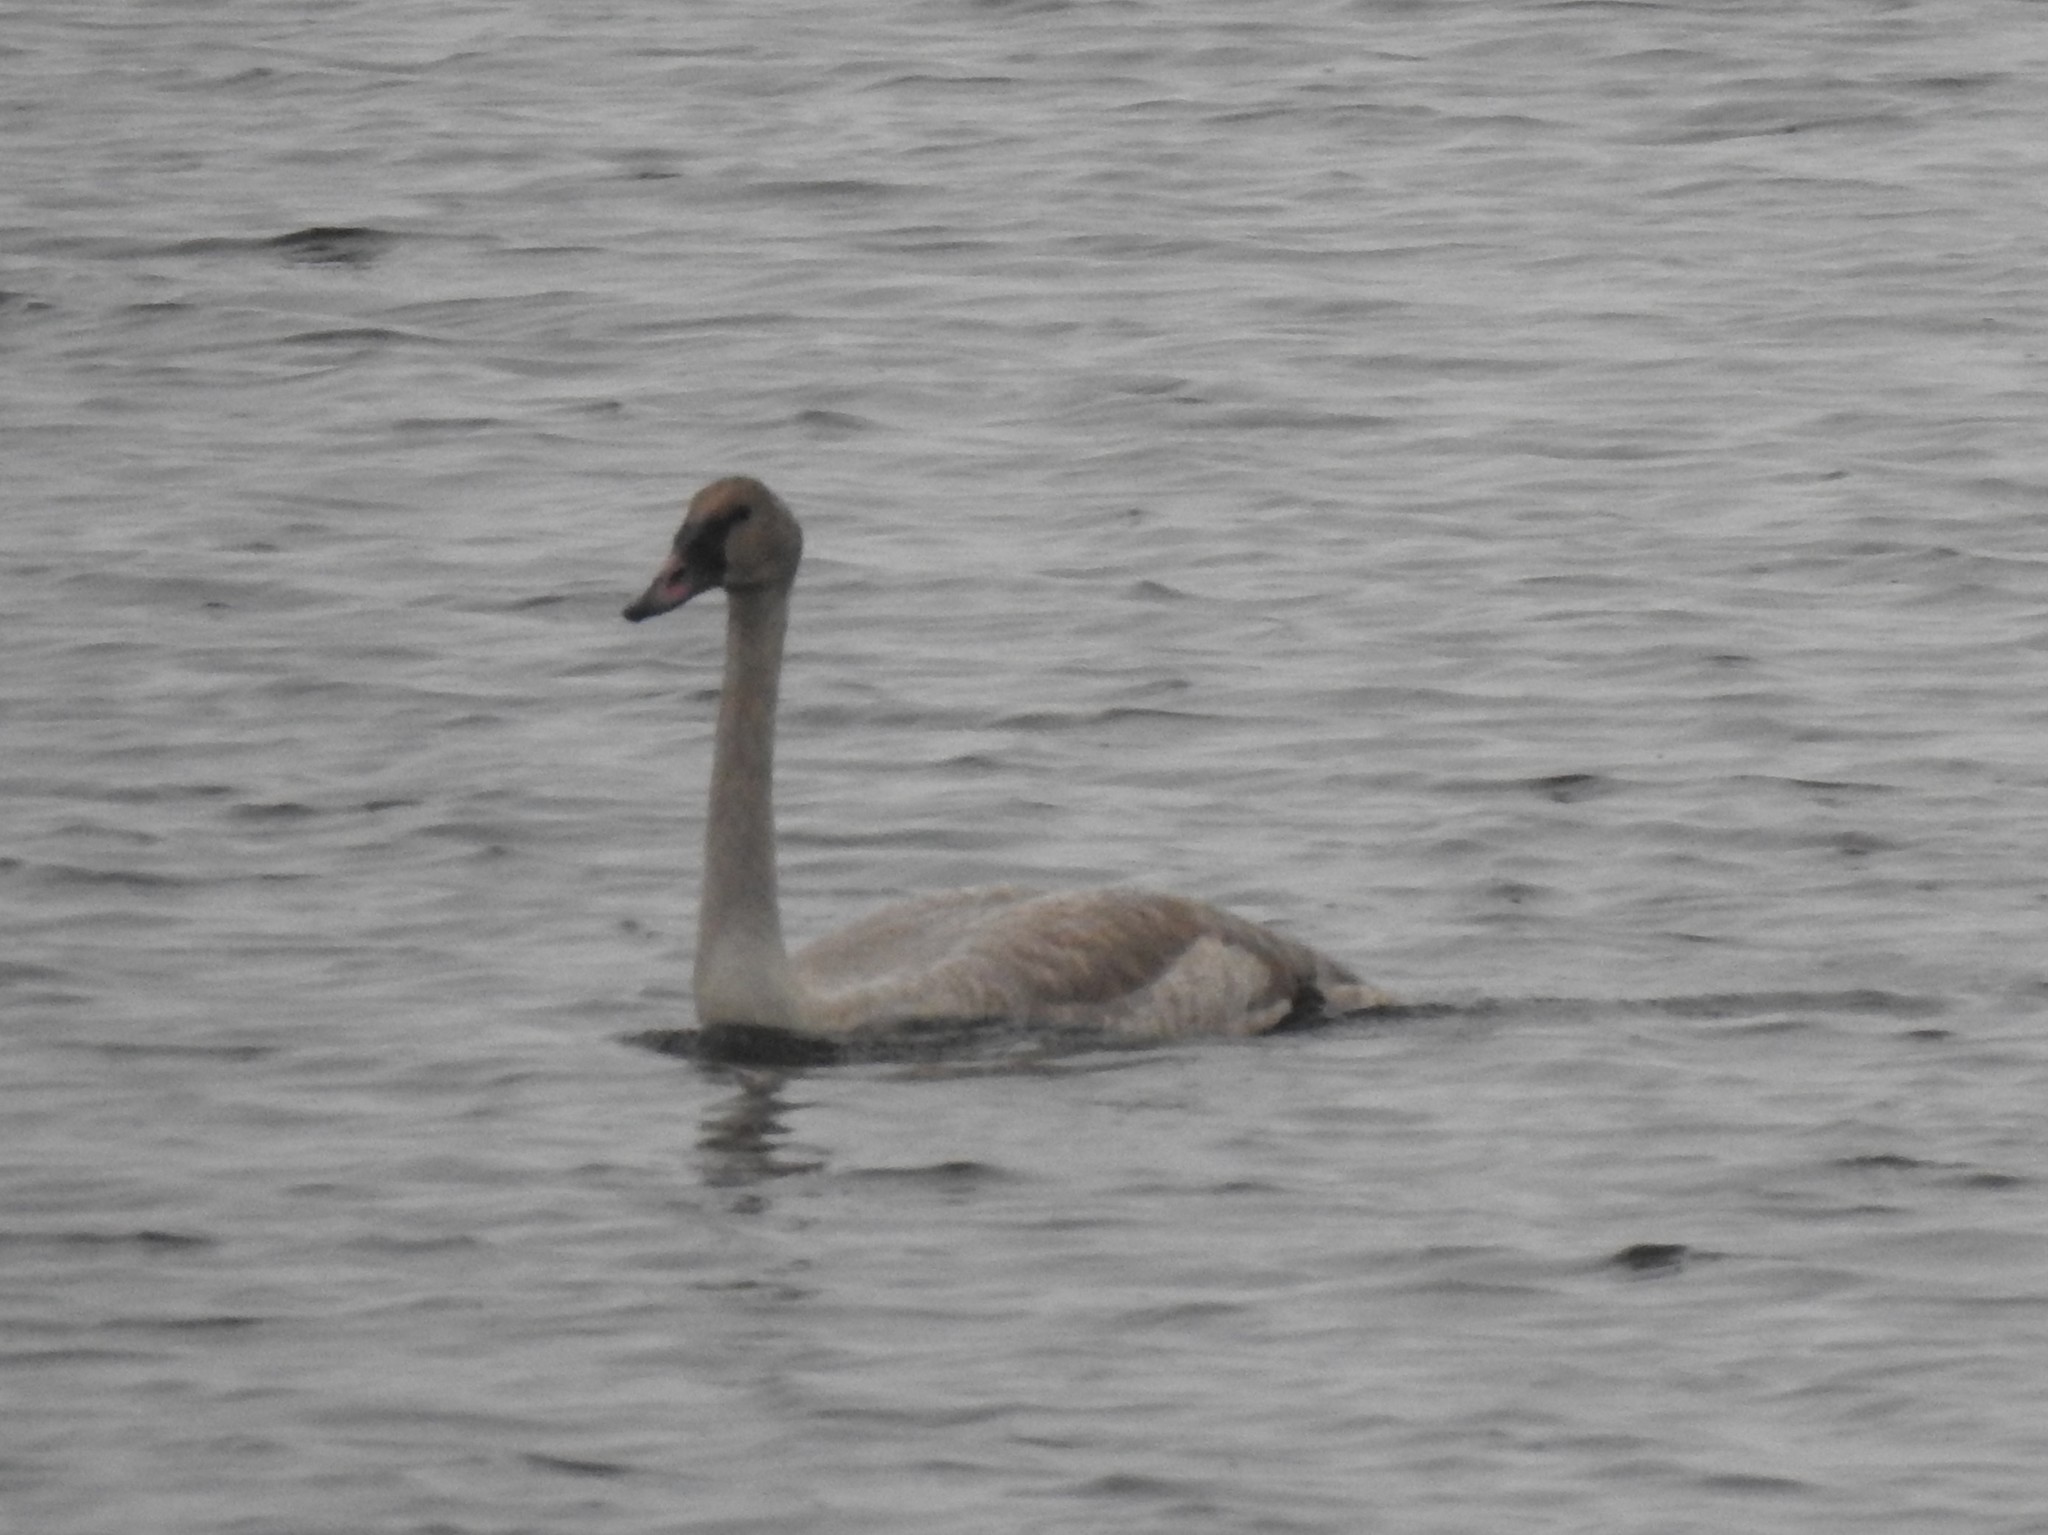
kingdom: Animalia
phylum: Chordata
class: Aves
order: Anseriformes
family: Anatidae
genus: Cygnus
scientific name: Cygnus buccinator
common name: Trumpeter swan
